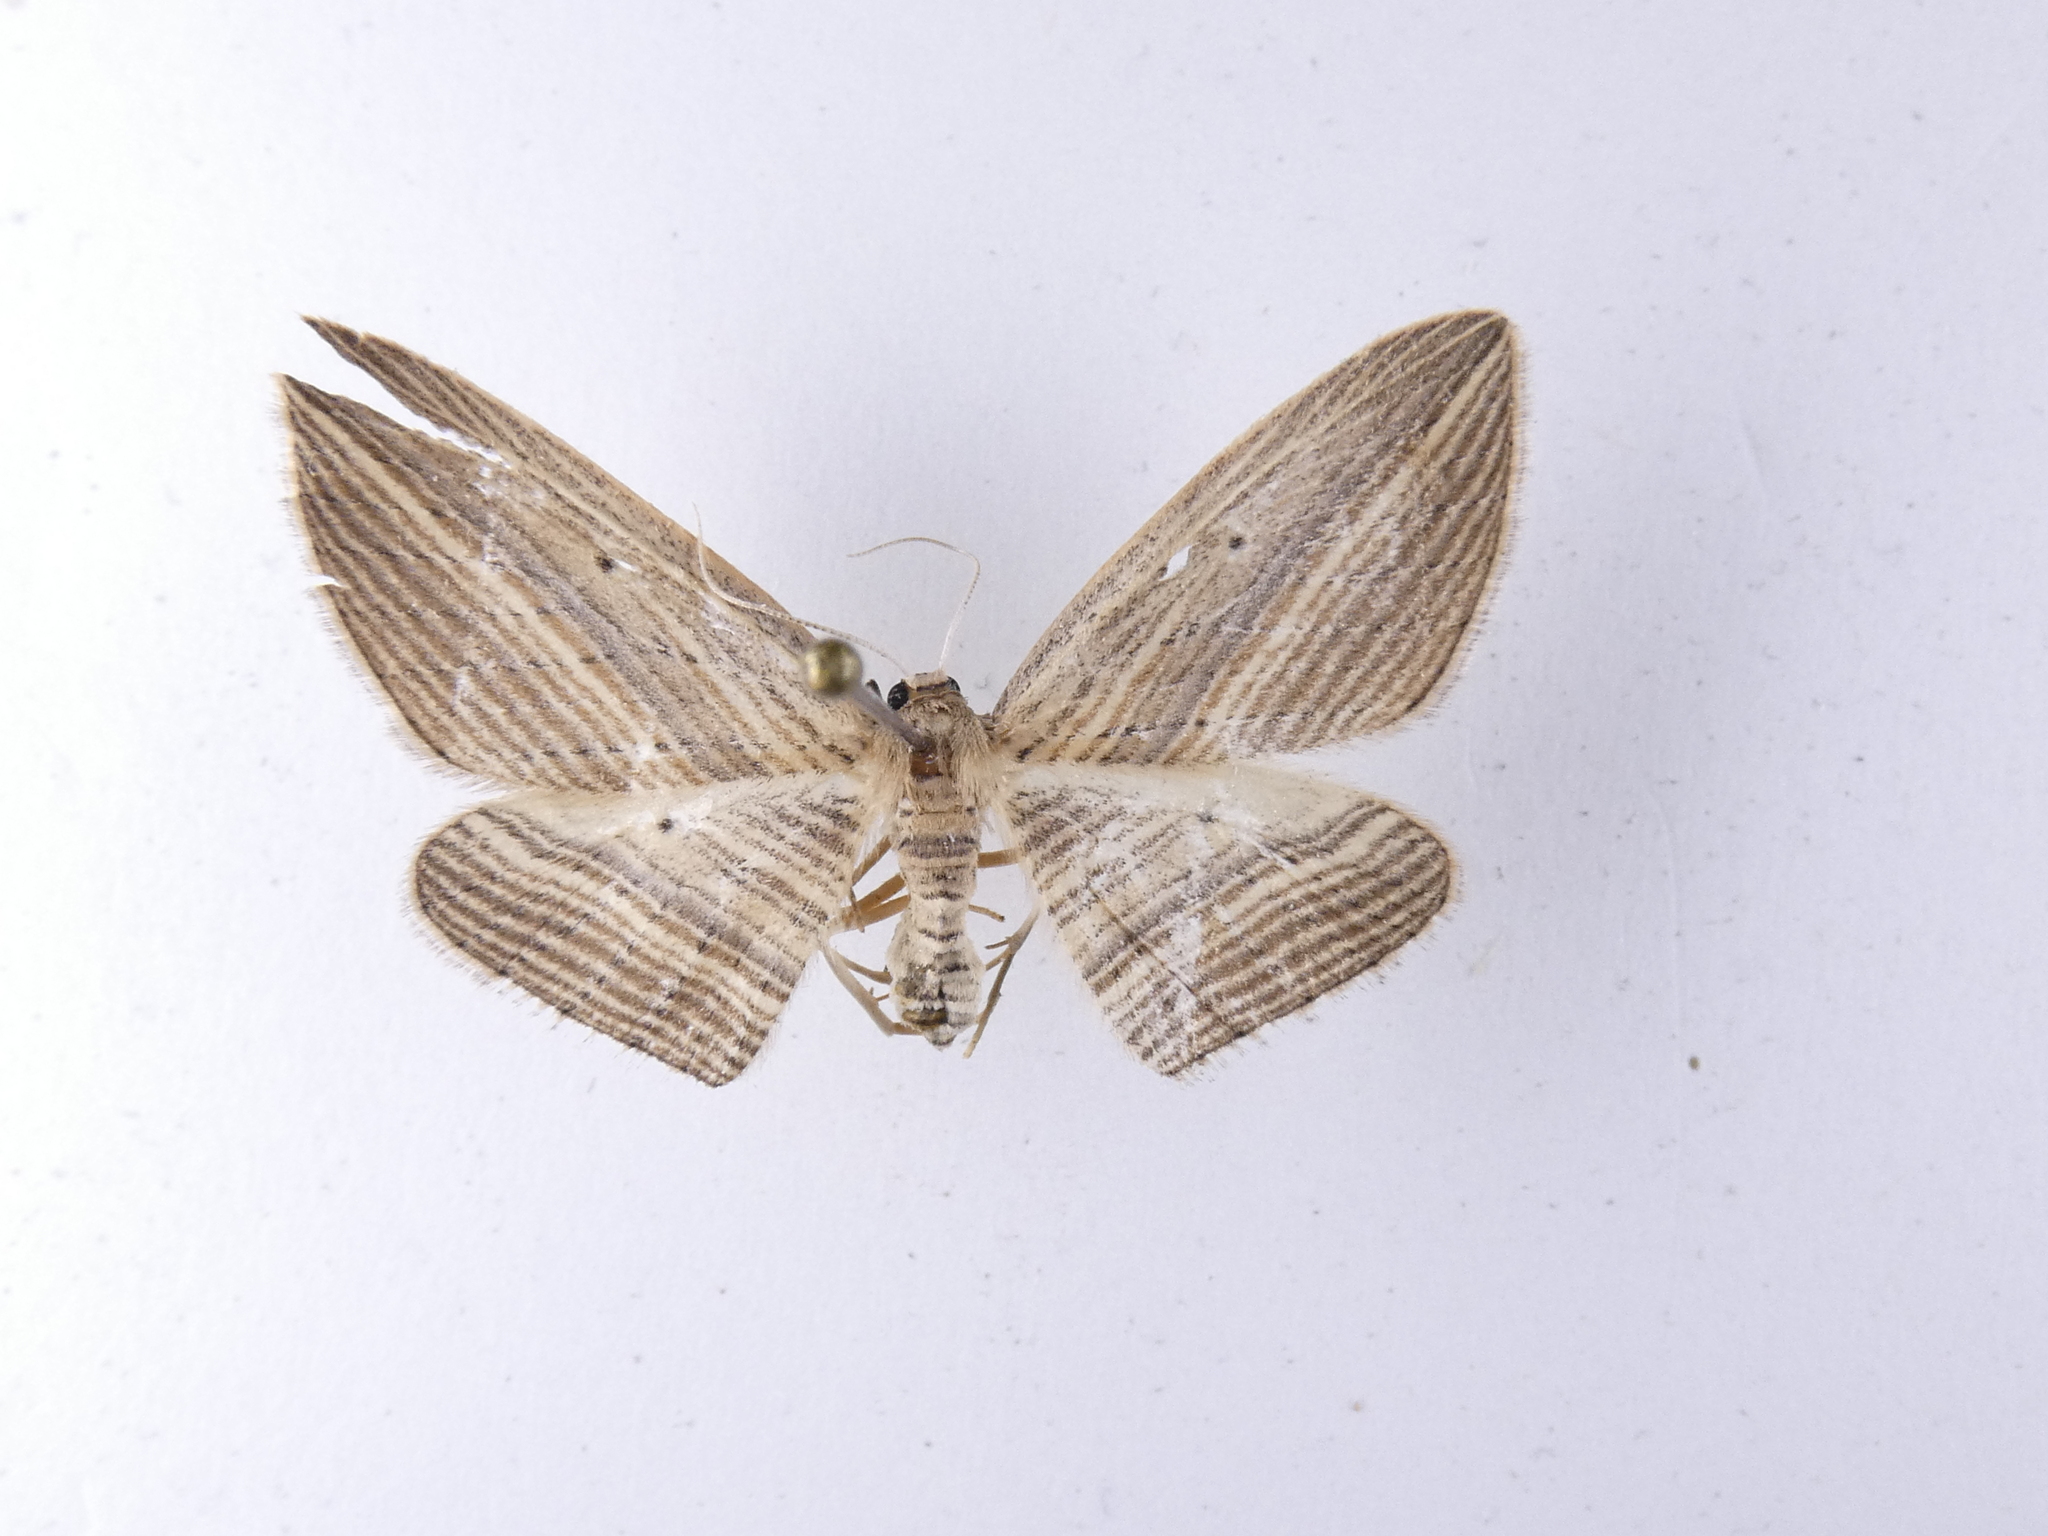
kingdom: Animalia
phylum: Arthropoda
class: Insecta
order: Lepidoptera
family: Geometridae
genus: Epiphryne
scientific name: Epiphryne verriculata
